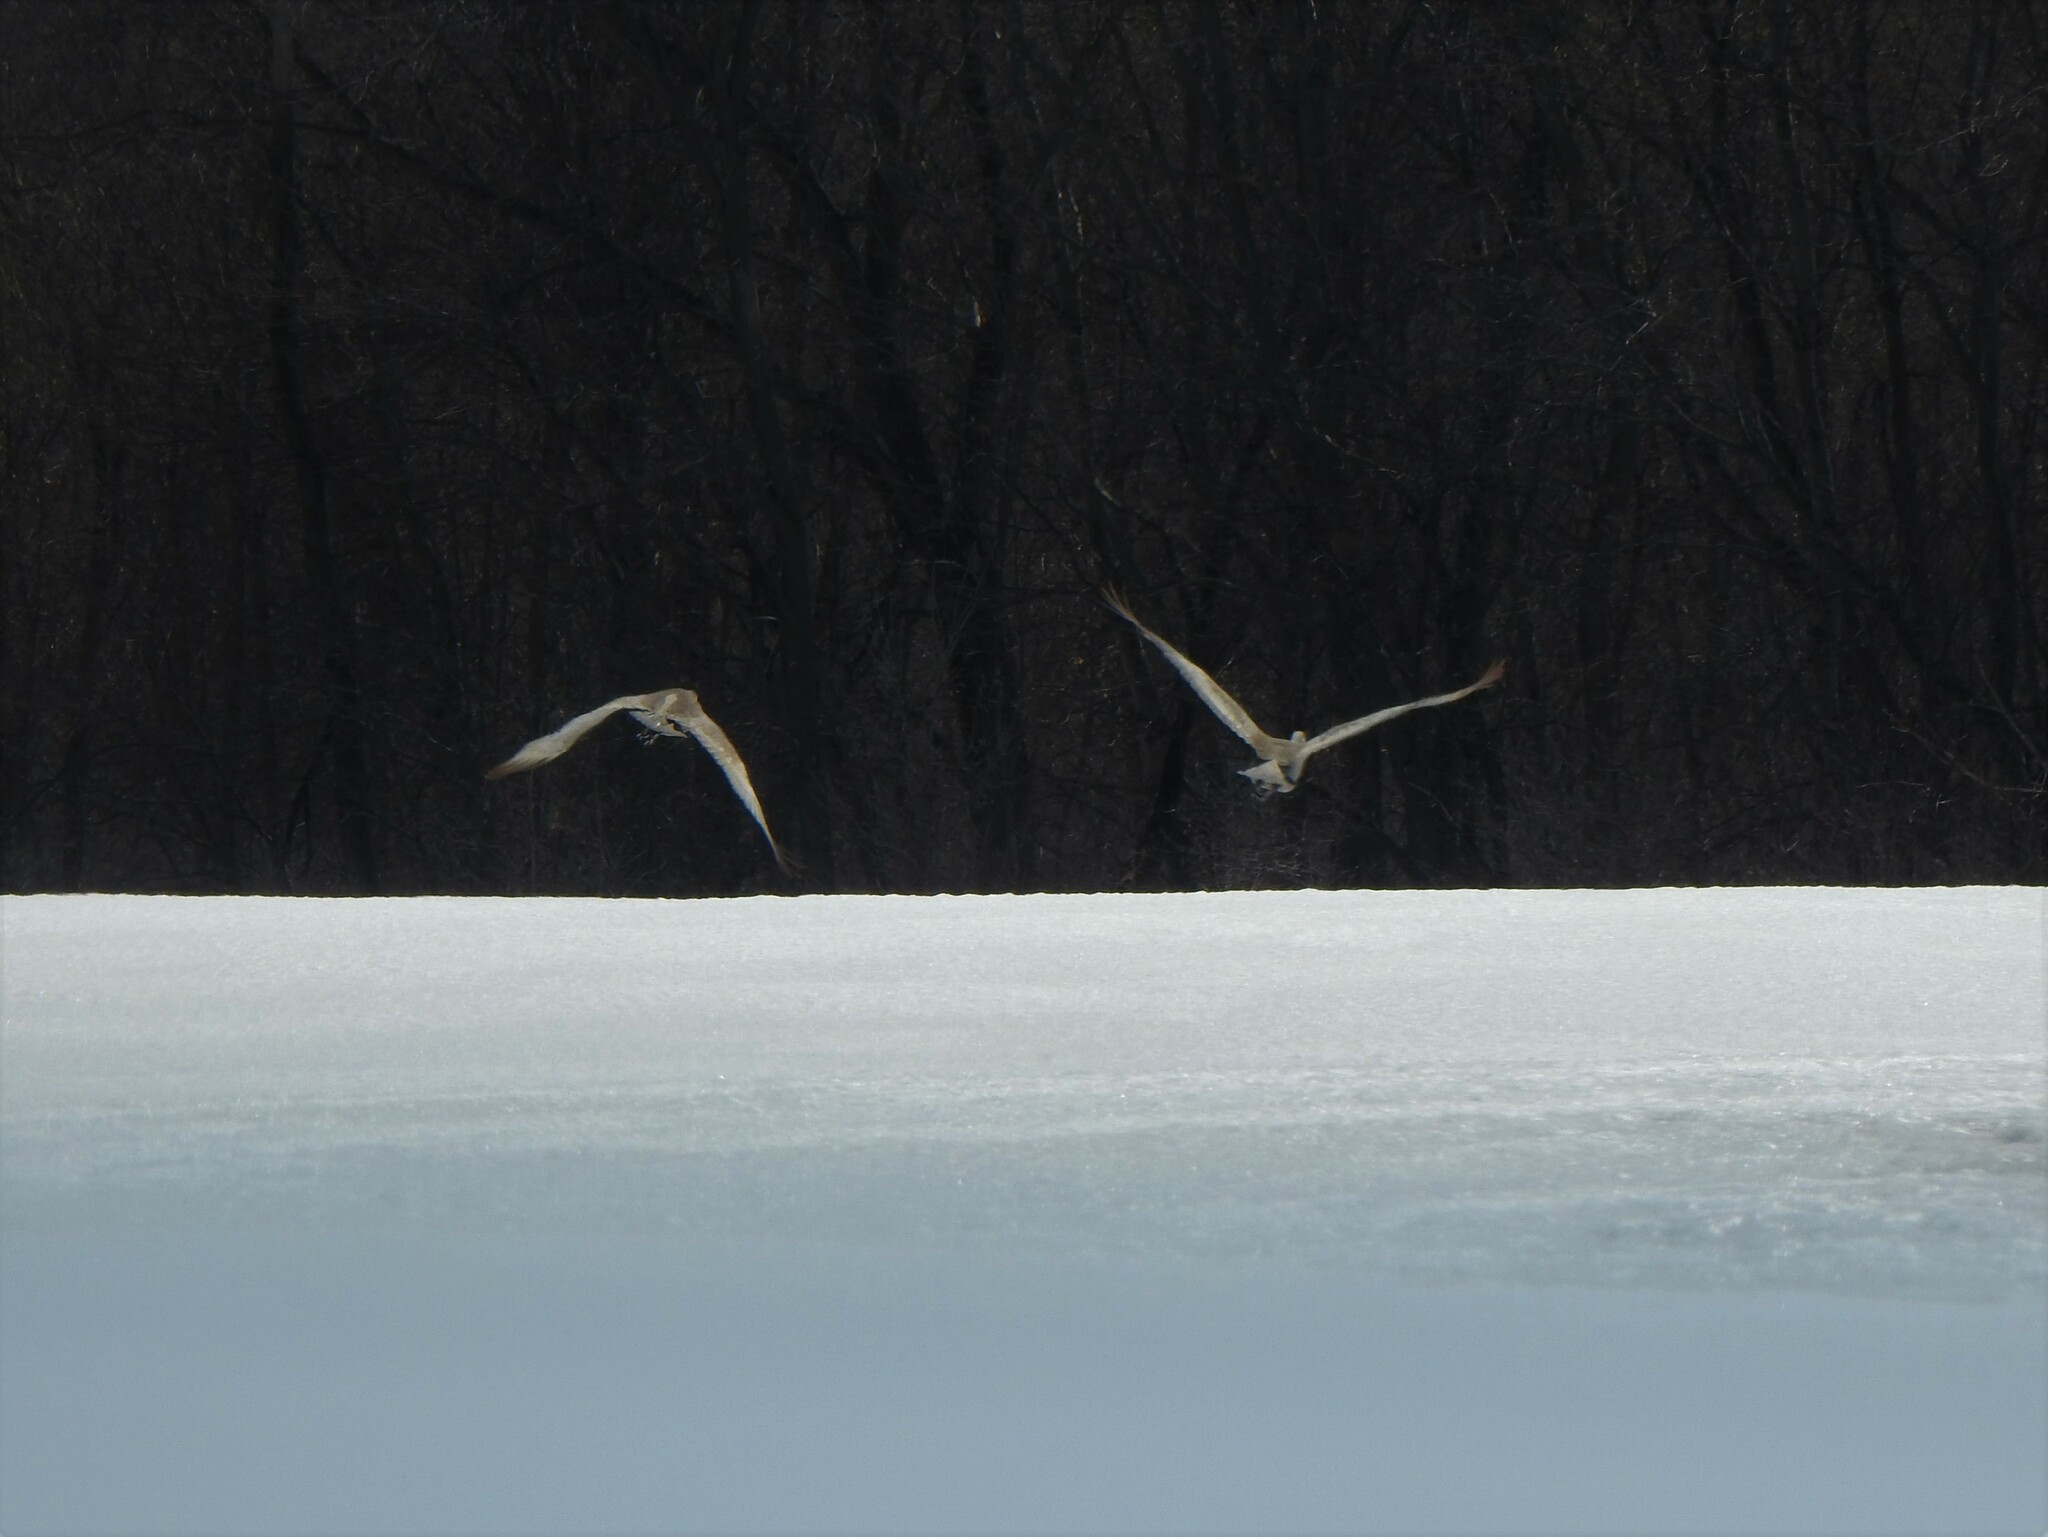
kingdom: Animalia
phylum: Chordata
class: Aves
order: Gruiformes
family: Gruidae
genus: Grus
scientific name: Grus canadensis
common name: Sandhill crane
